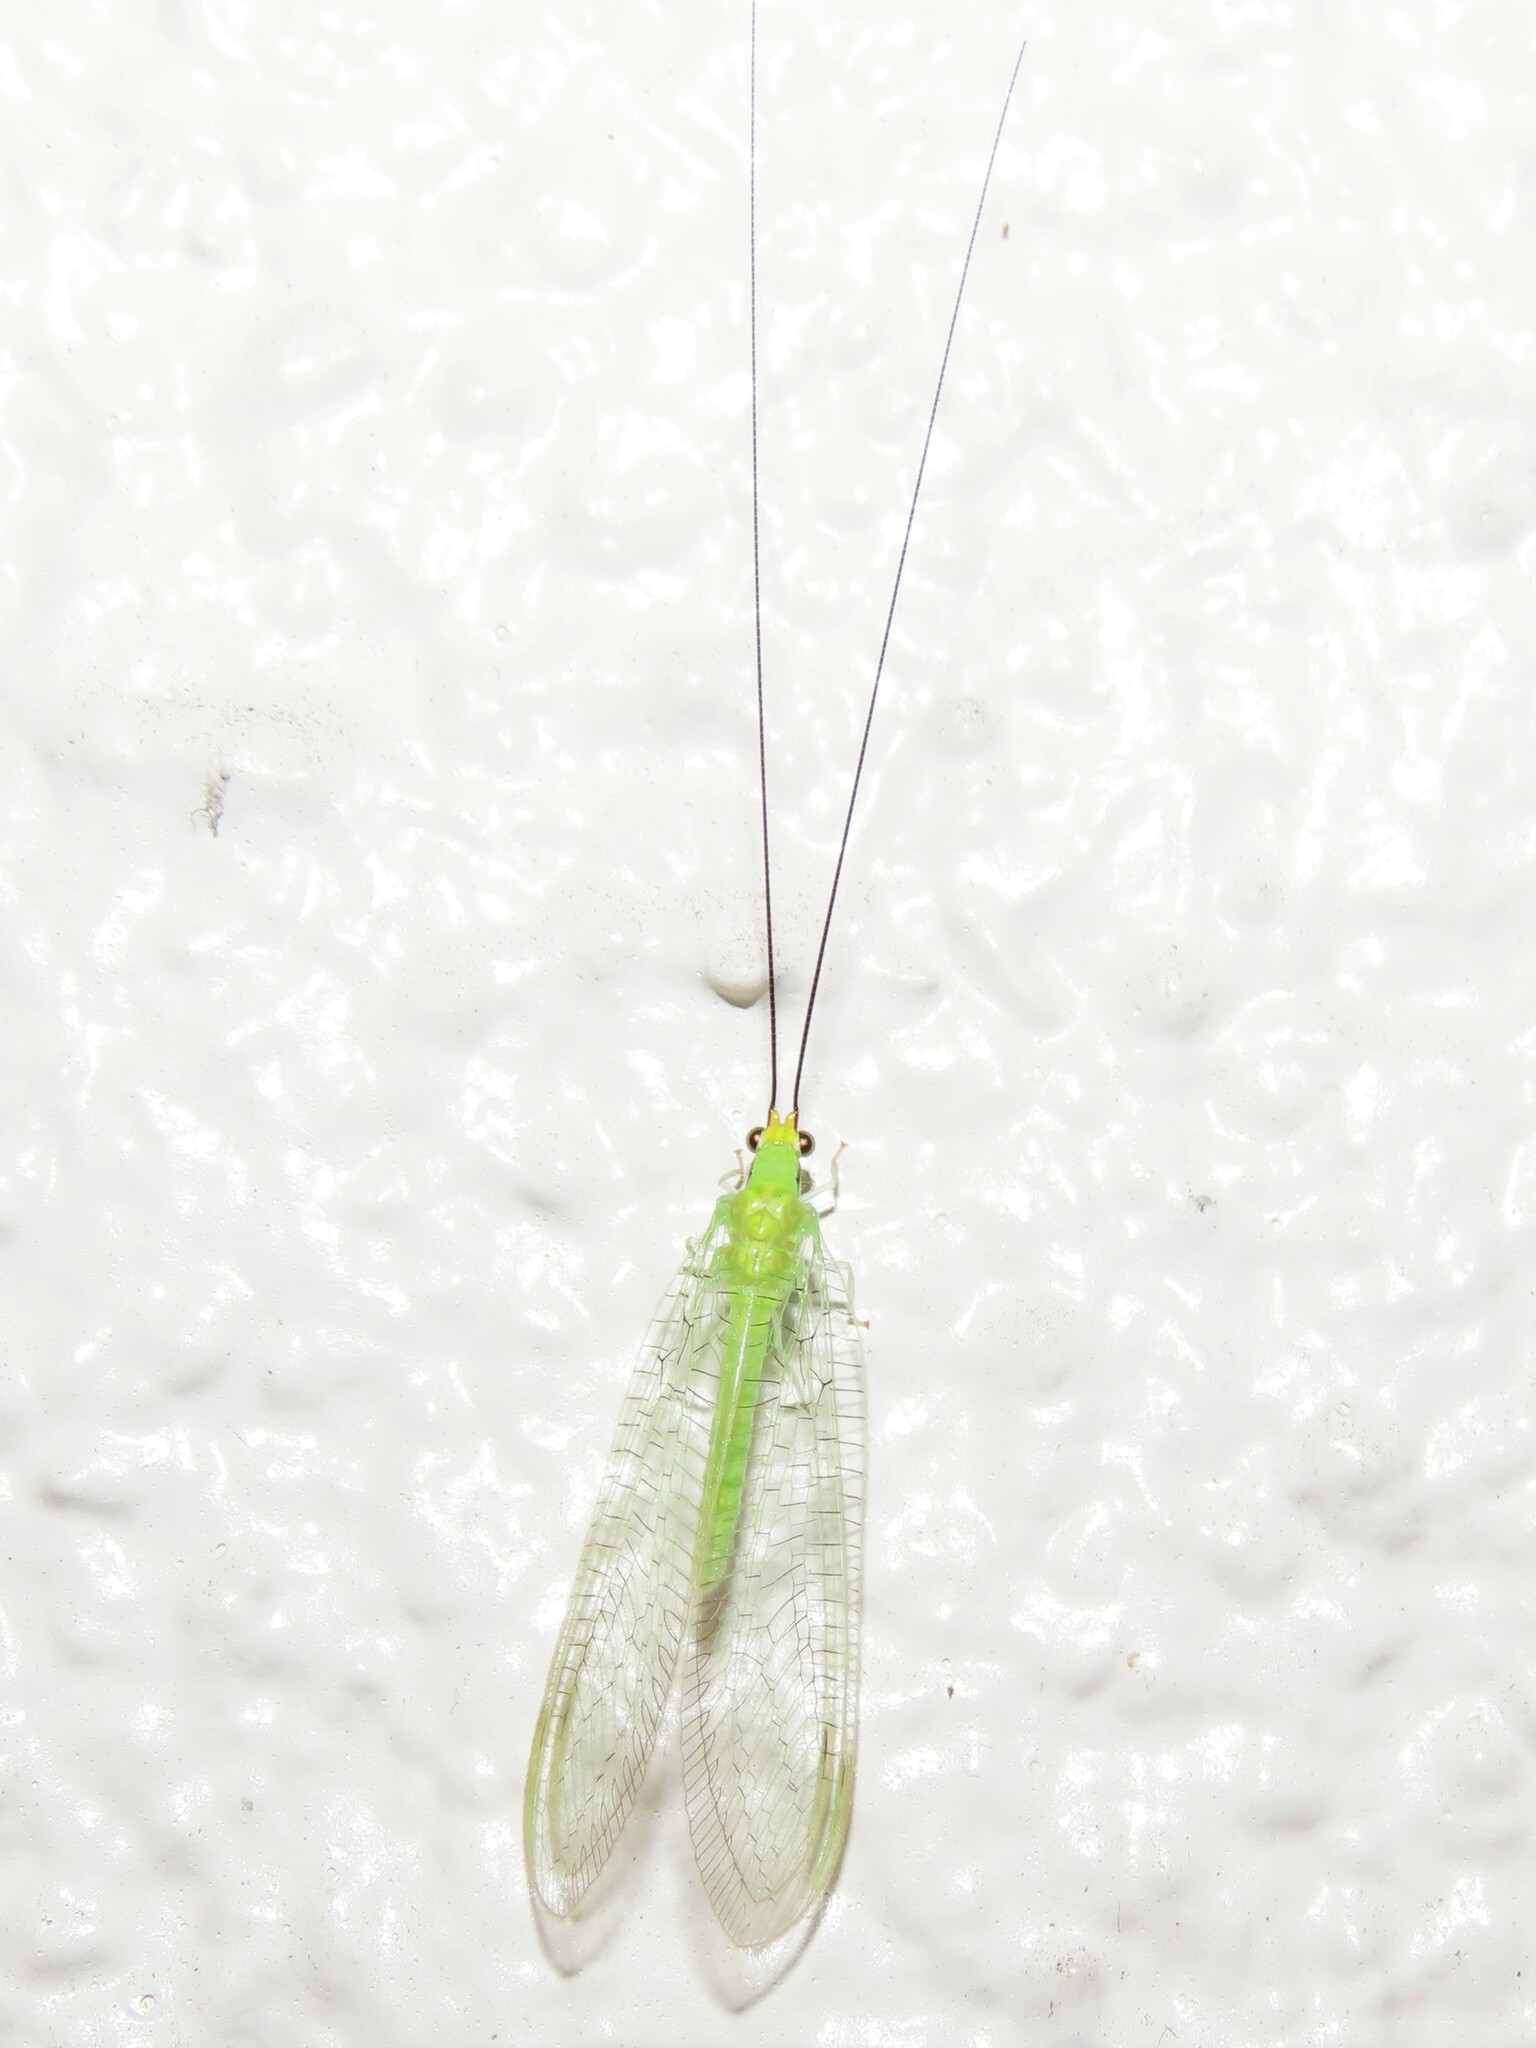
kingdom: Animalia
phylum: Arthropoda
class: Insecta
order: Neuroptera
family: Chrysopidae
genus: Leucochrysa
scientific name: Leucochrysa pavida
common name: Lichen-carrying green lacewing
